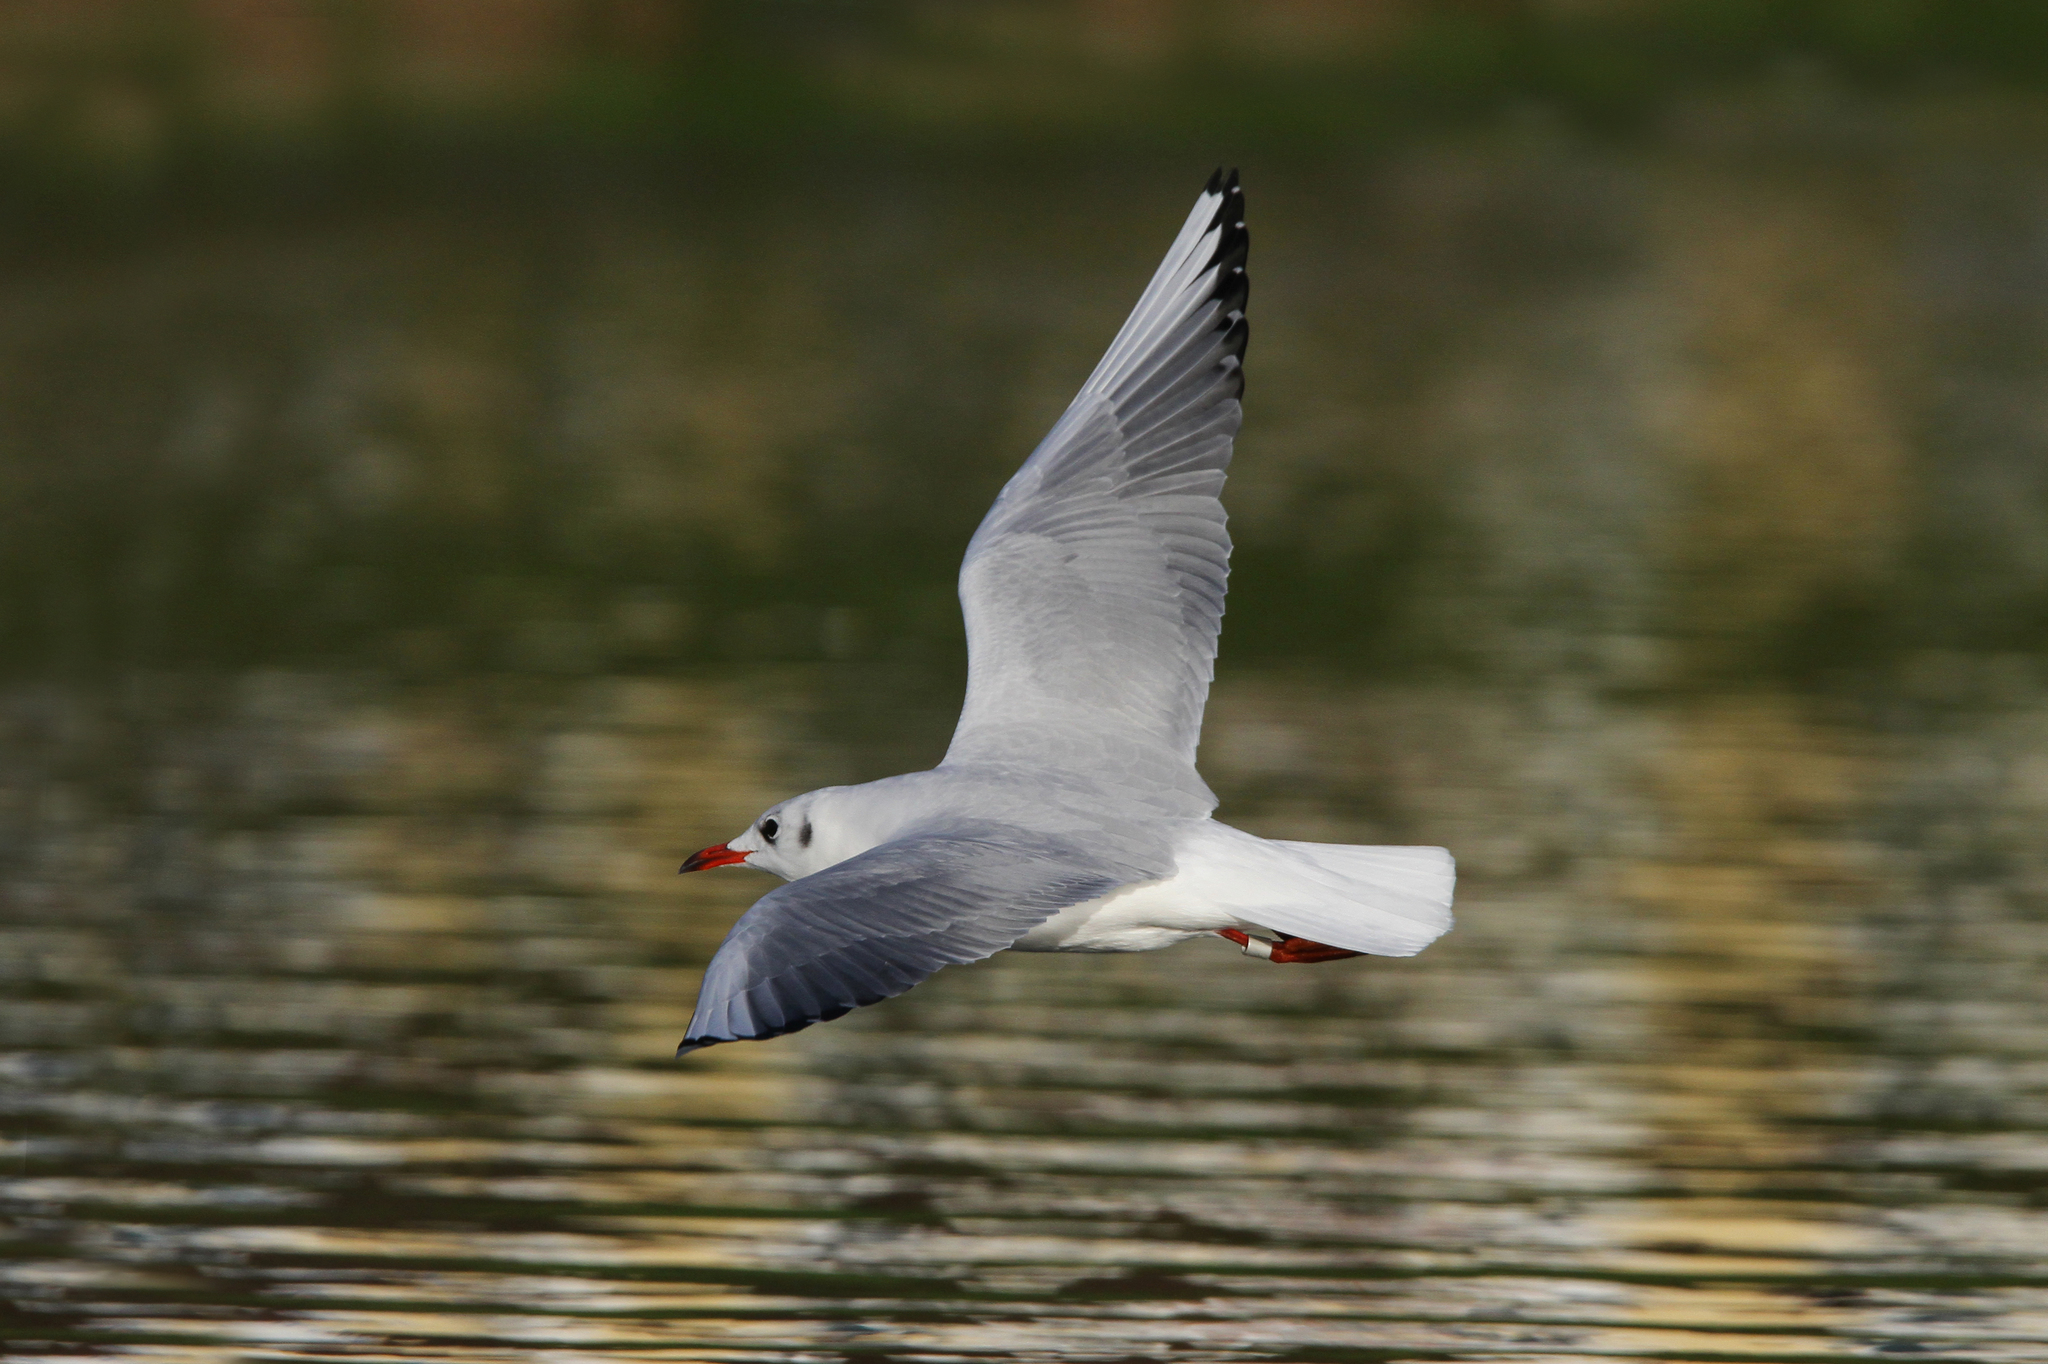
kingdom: Animalia
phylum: Chordata
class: Aves
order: Charadriiformes
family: Laridae
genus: Chroicocephalus
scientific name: Chroicocephalus ridibundus
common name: Black-headed gull
